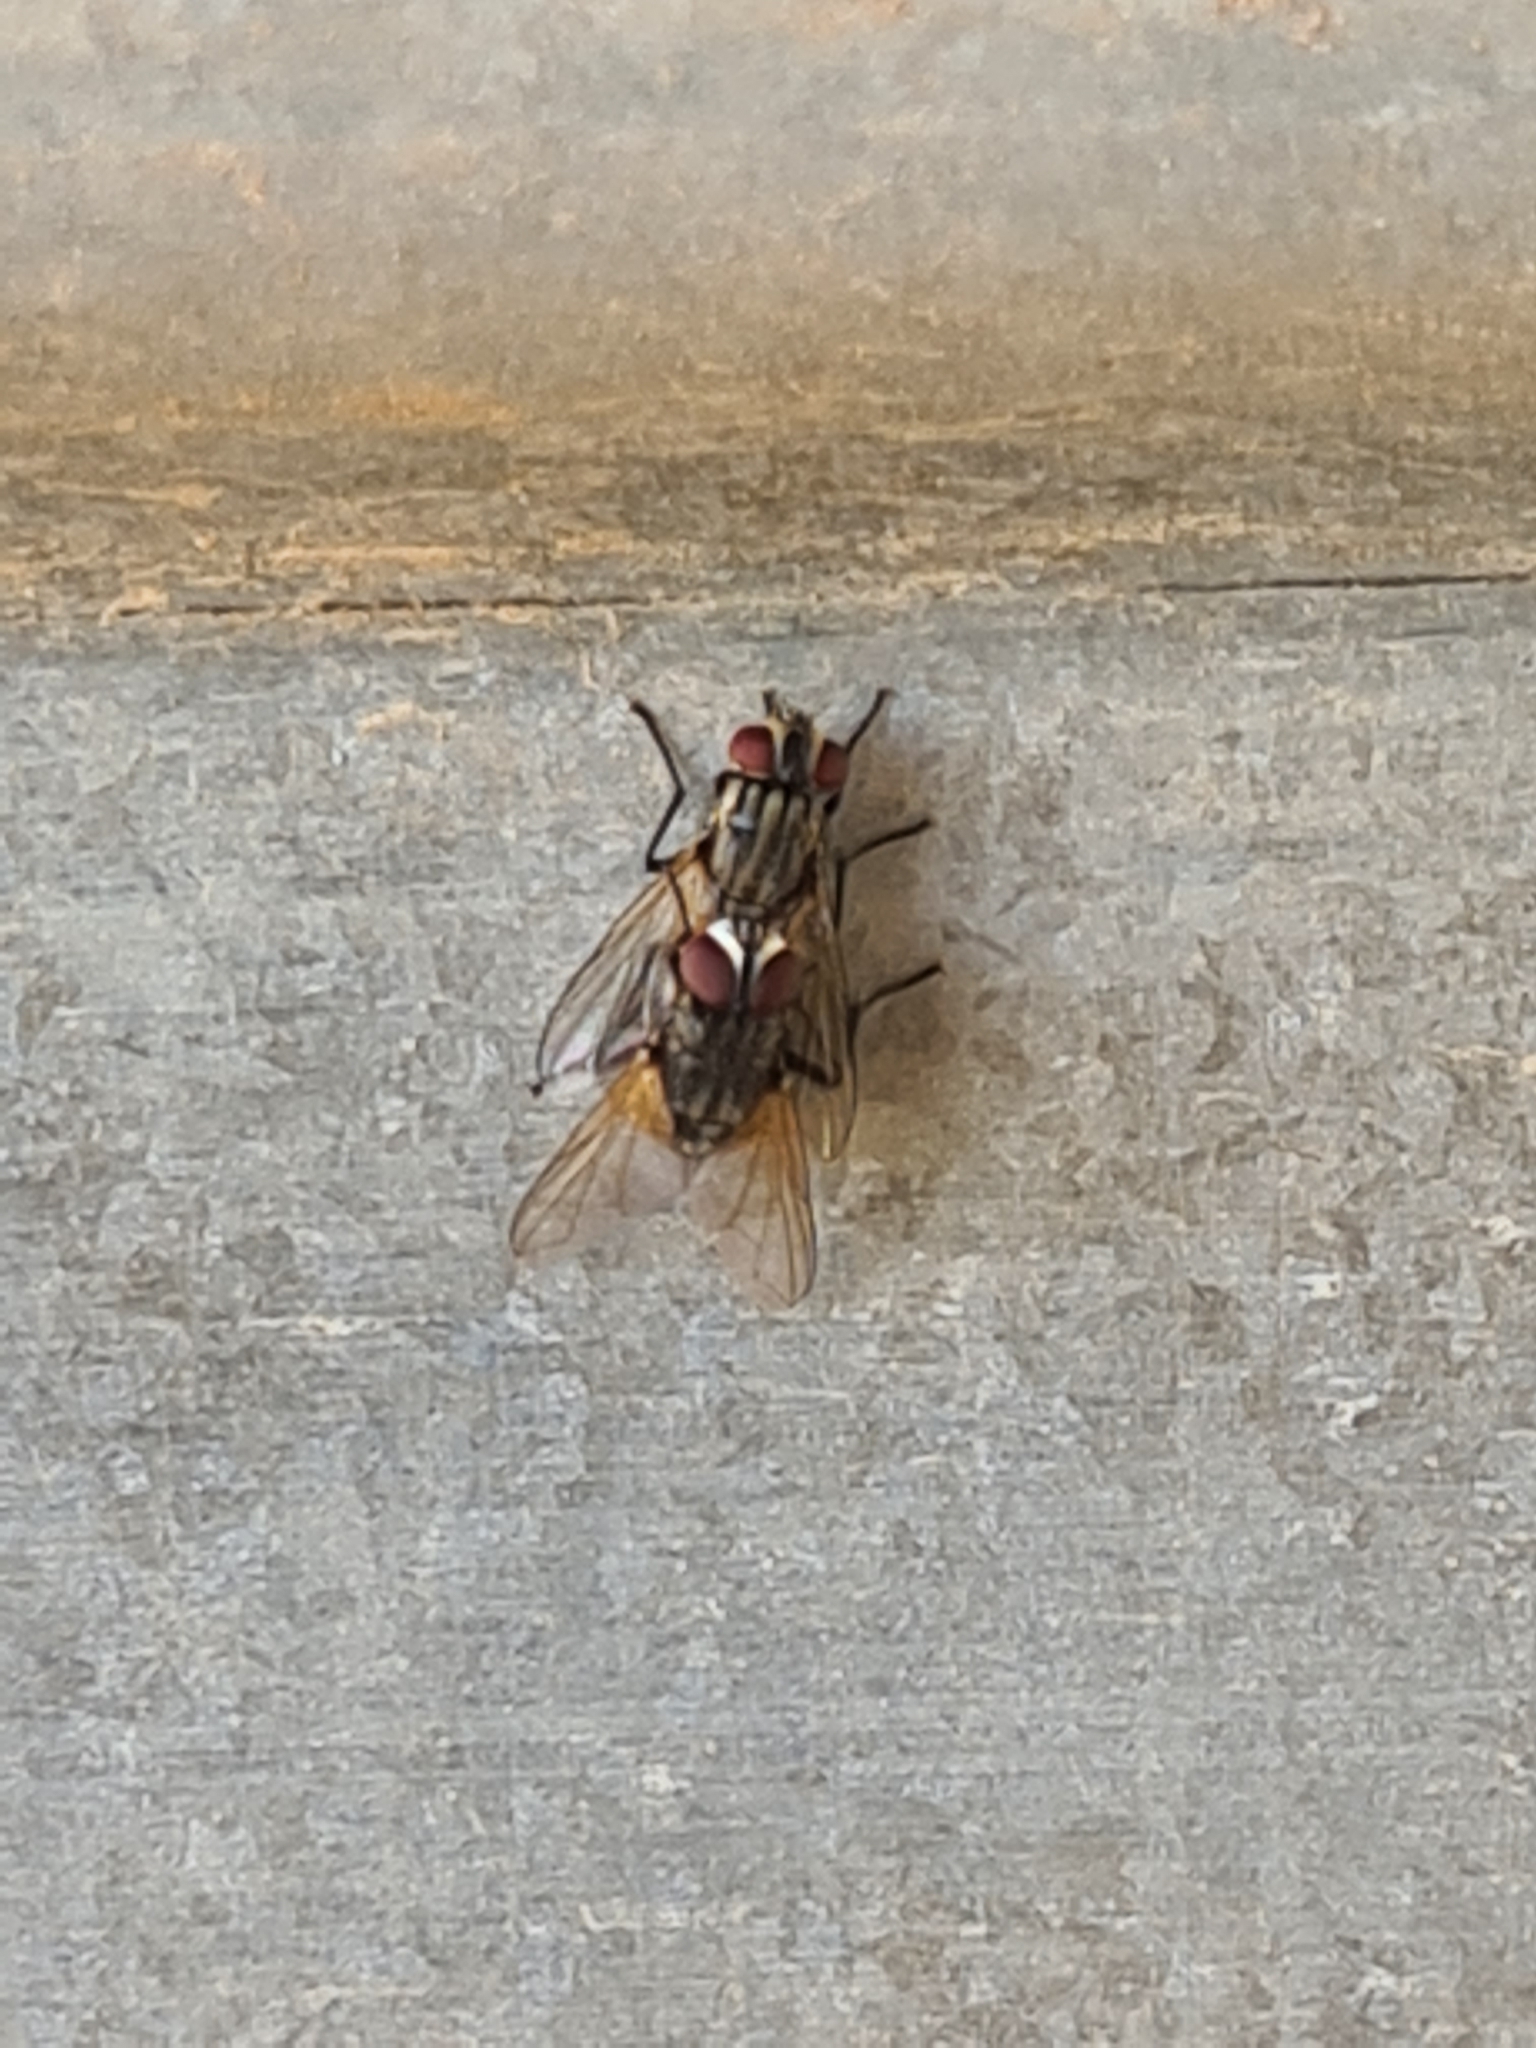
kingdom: Animalia
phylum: Arthropoda
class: Insecta
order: Diptera
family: Muscidae
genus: Musca
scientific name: Musca domestica
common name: House fly
